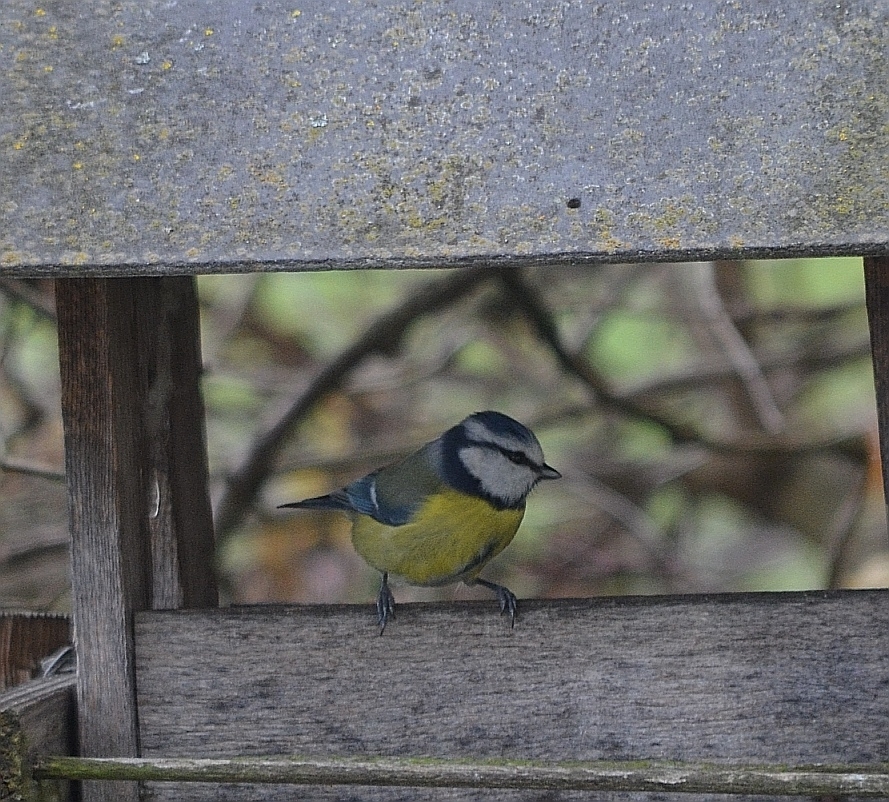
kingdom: Animalia
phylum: Chordata
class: Aves
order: Passeriformes
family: Paridae
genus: Cyanistes
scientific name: Cyanistes caeruleus
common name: Eurasian blue tit
